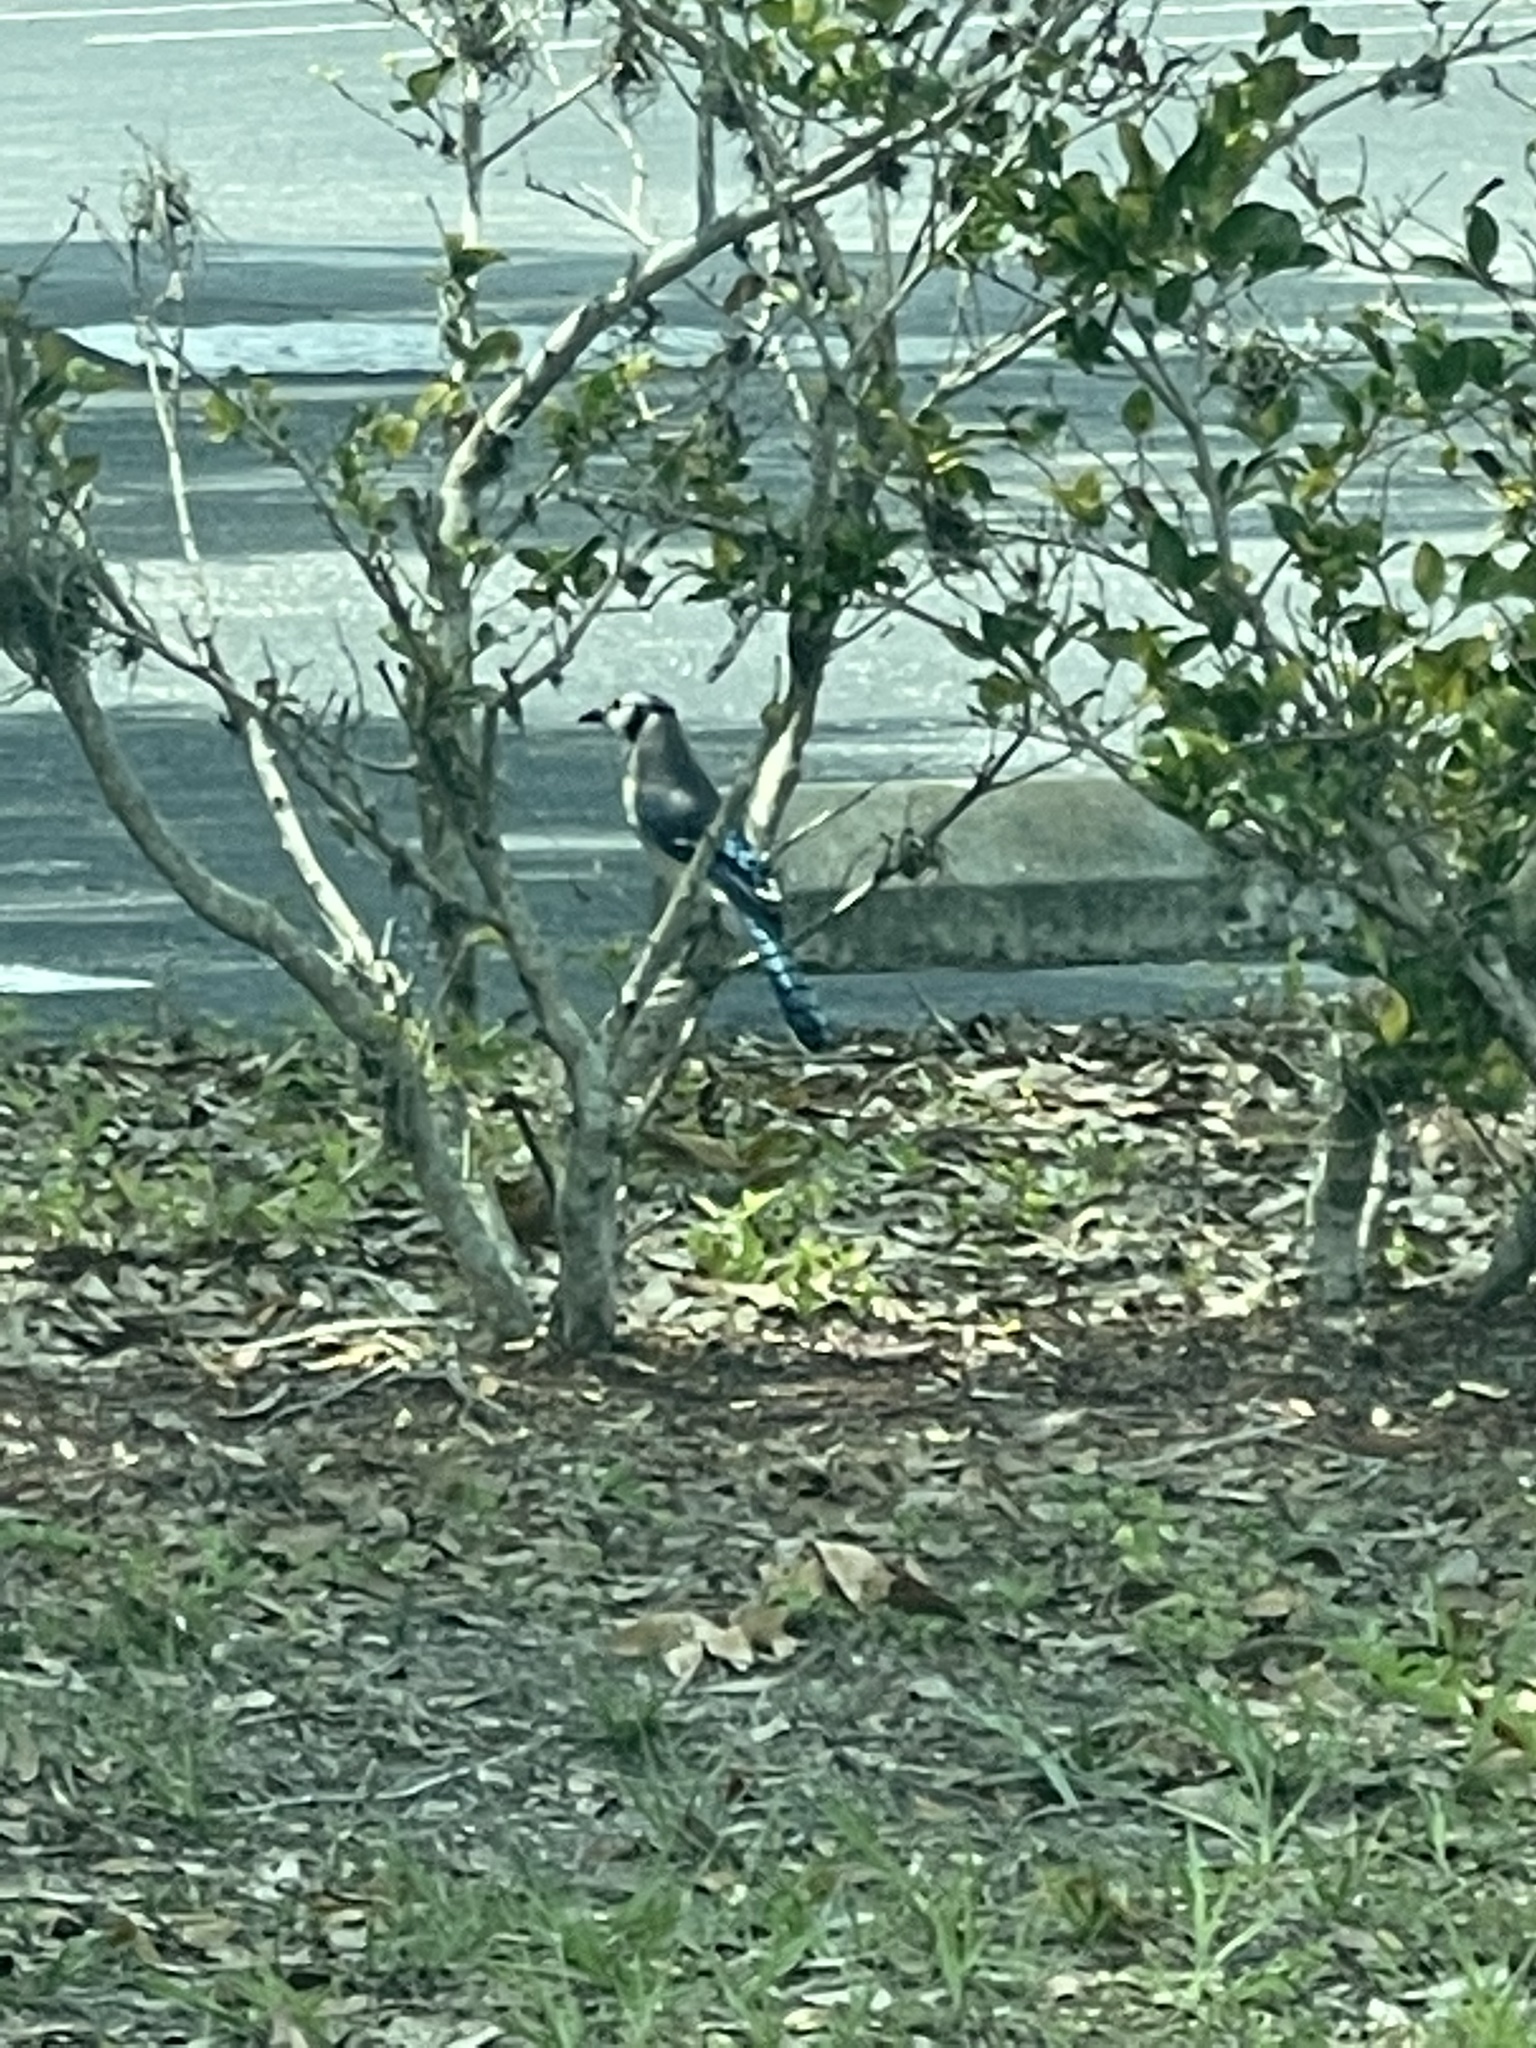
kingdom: Animalia
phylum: Chordata
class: Aves
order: Passeriformes
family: Corvidae
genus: Cyanocitta
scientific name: Cyanocitta cristata
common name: Blue jay
